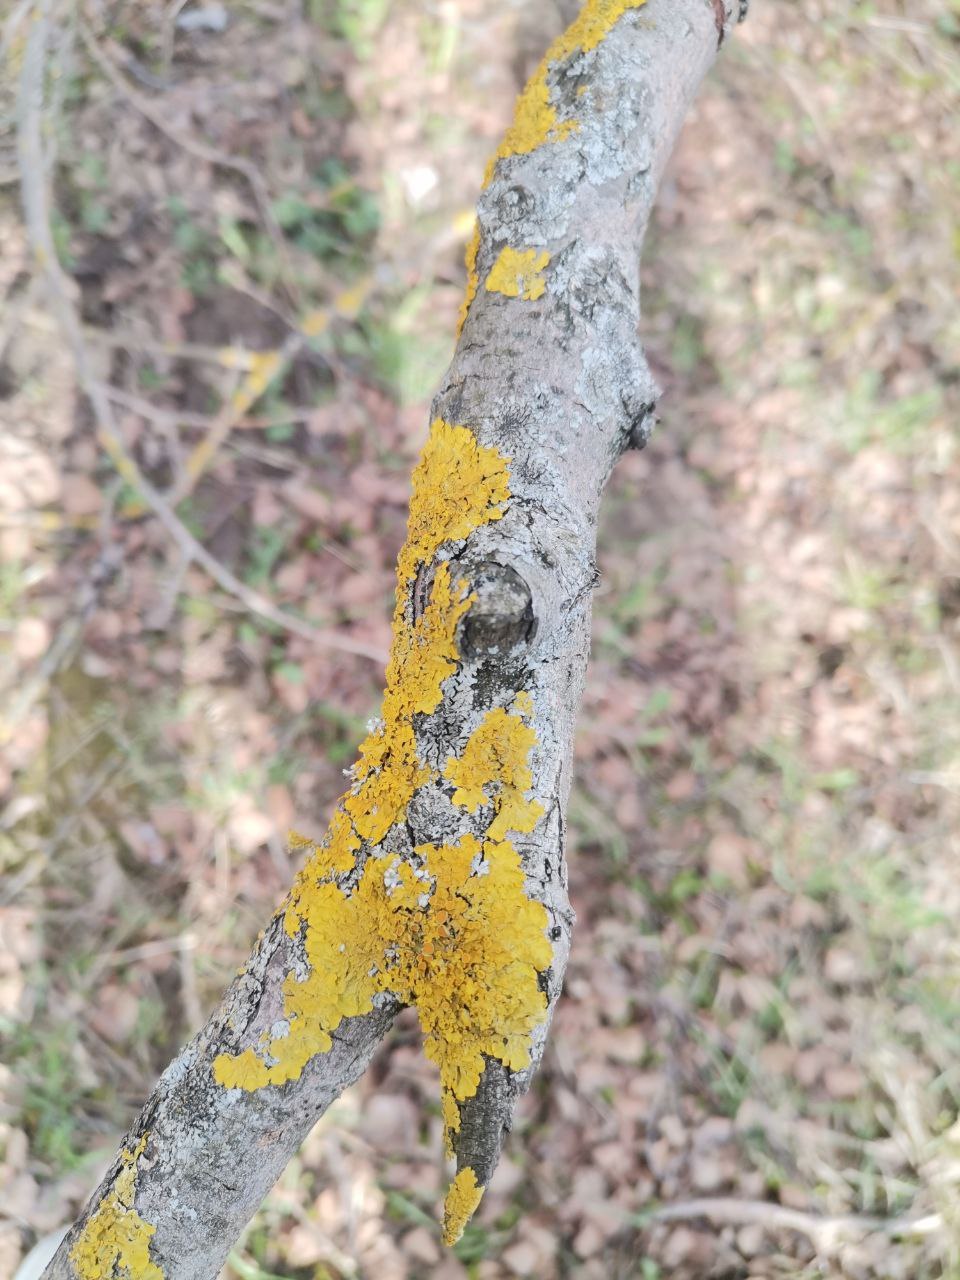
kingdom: Fungi
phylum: Ascomycota
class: Lecanoromycetes
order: Teloschistales
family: Teloschistaceae
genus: Xanthoria
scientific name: Xanthoria parietina
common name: Common orange lichen
